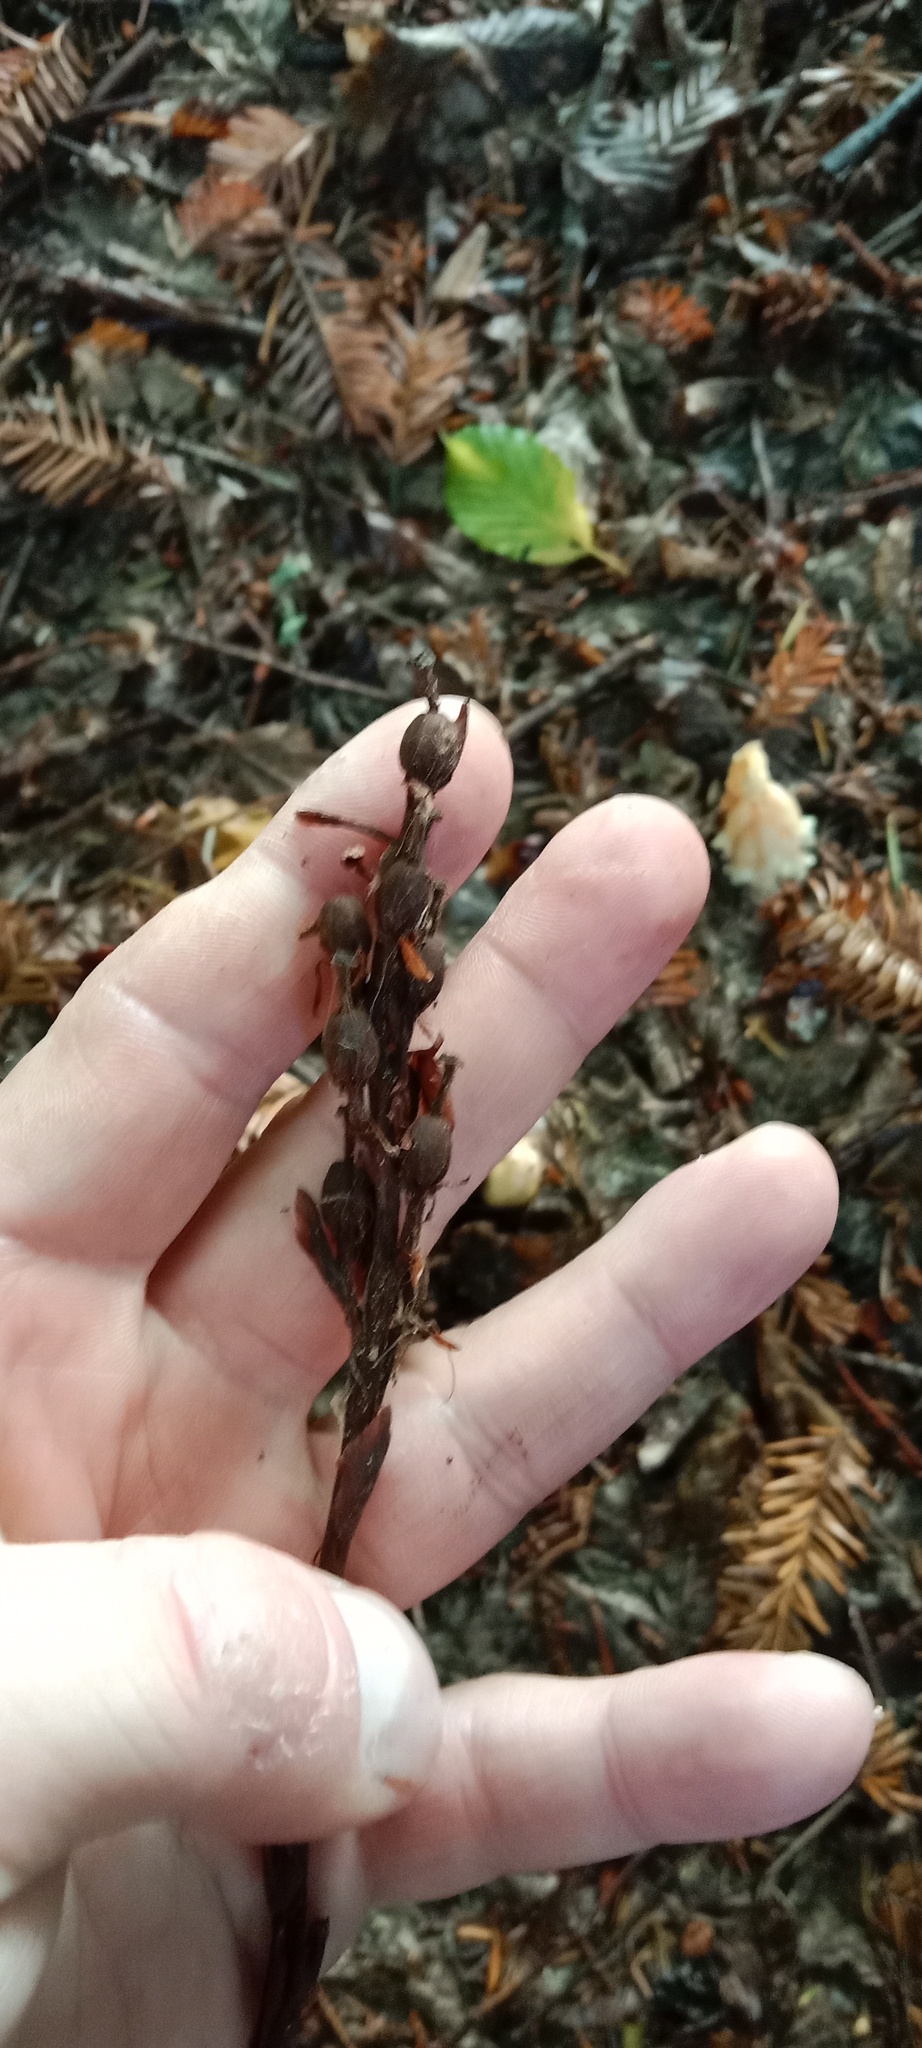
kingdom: Plantae
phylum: Tracheophyta
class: Magnoliopsida
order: Ericales
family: Ericaceae
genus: Hypopitys
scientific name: Hypopitys monotropa
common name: Yellow bird's-nest
